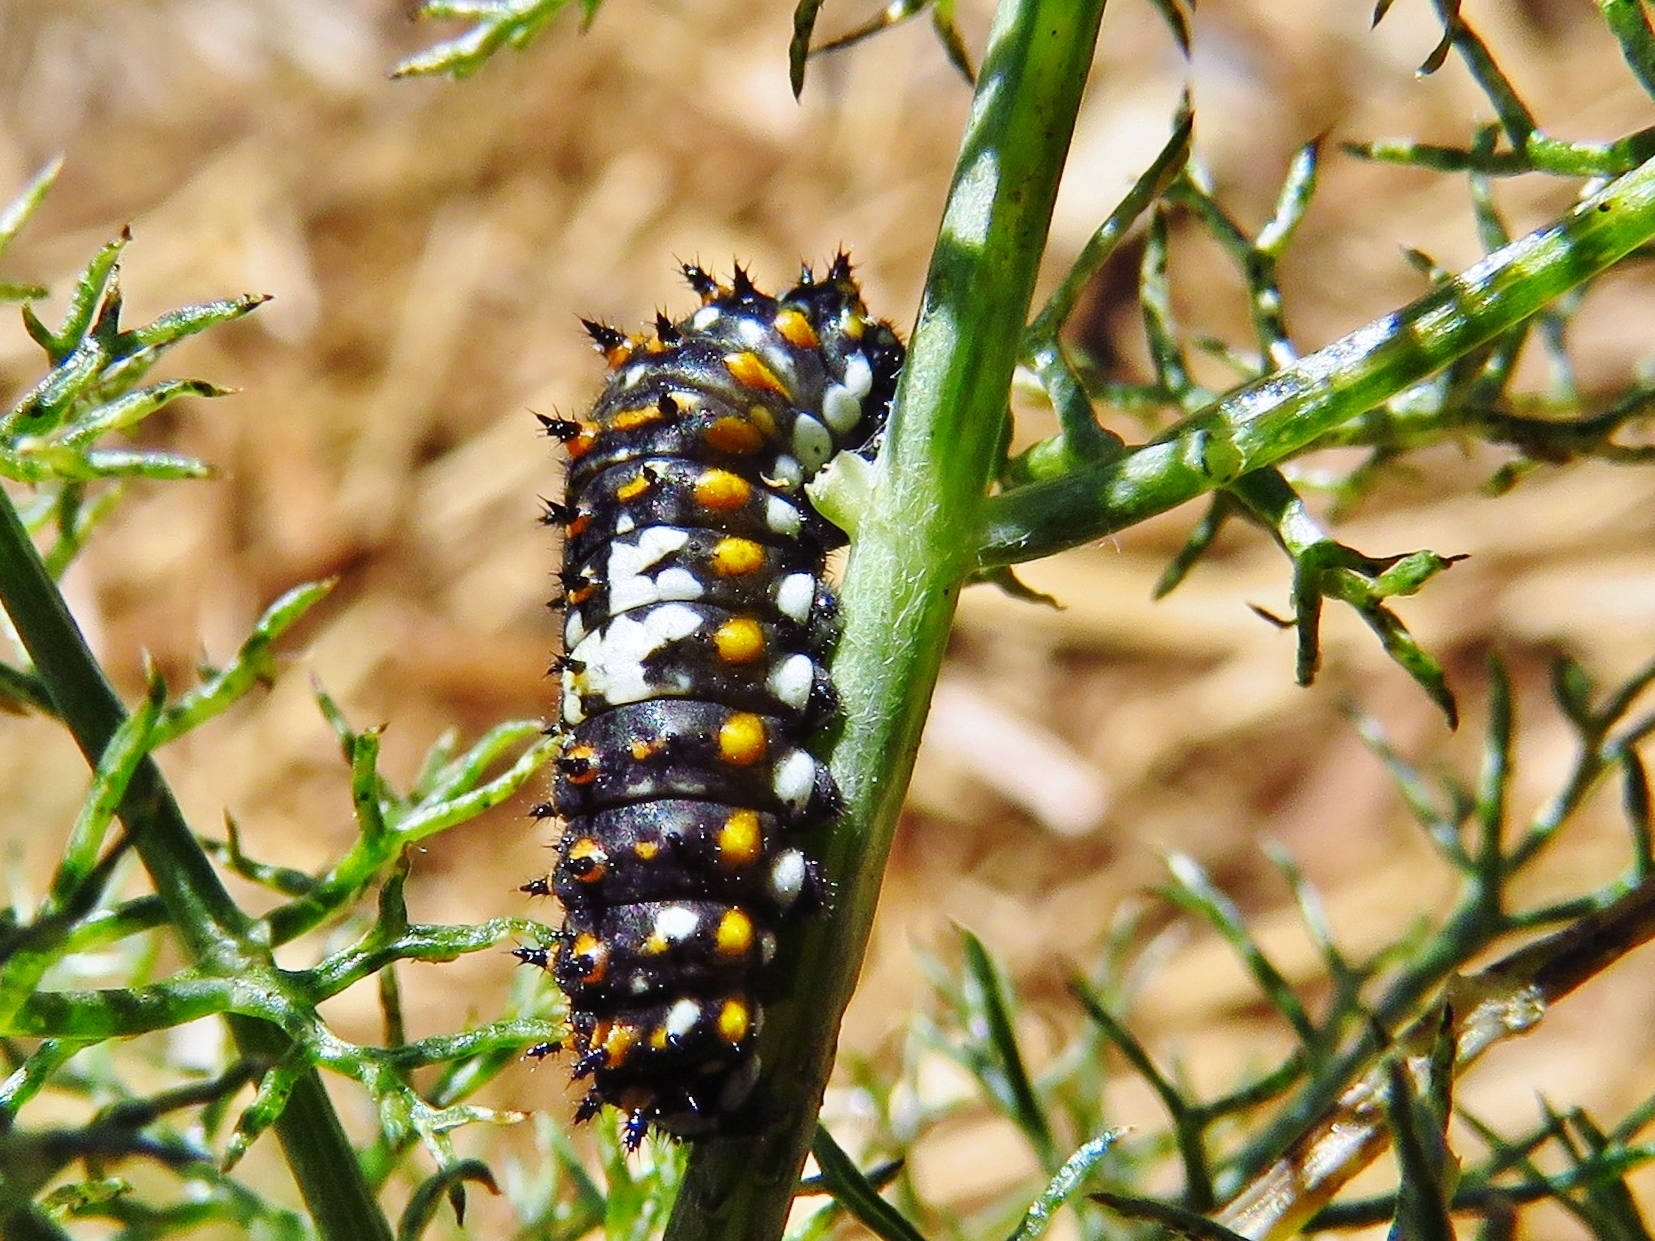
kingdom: Animalia
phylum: Arthropoda
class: Insecta
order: Lepidoptera
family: Papilionidae
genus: Papilio
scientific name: Papilio polyxenes
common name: Black swallowtail
